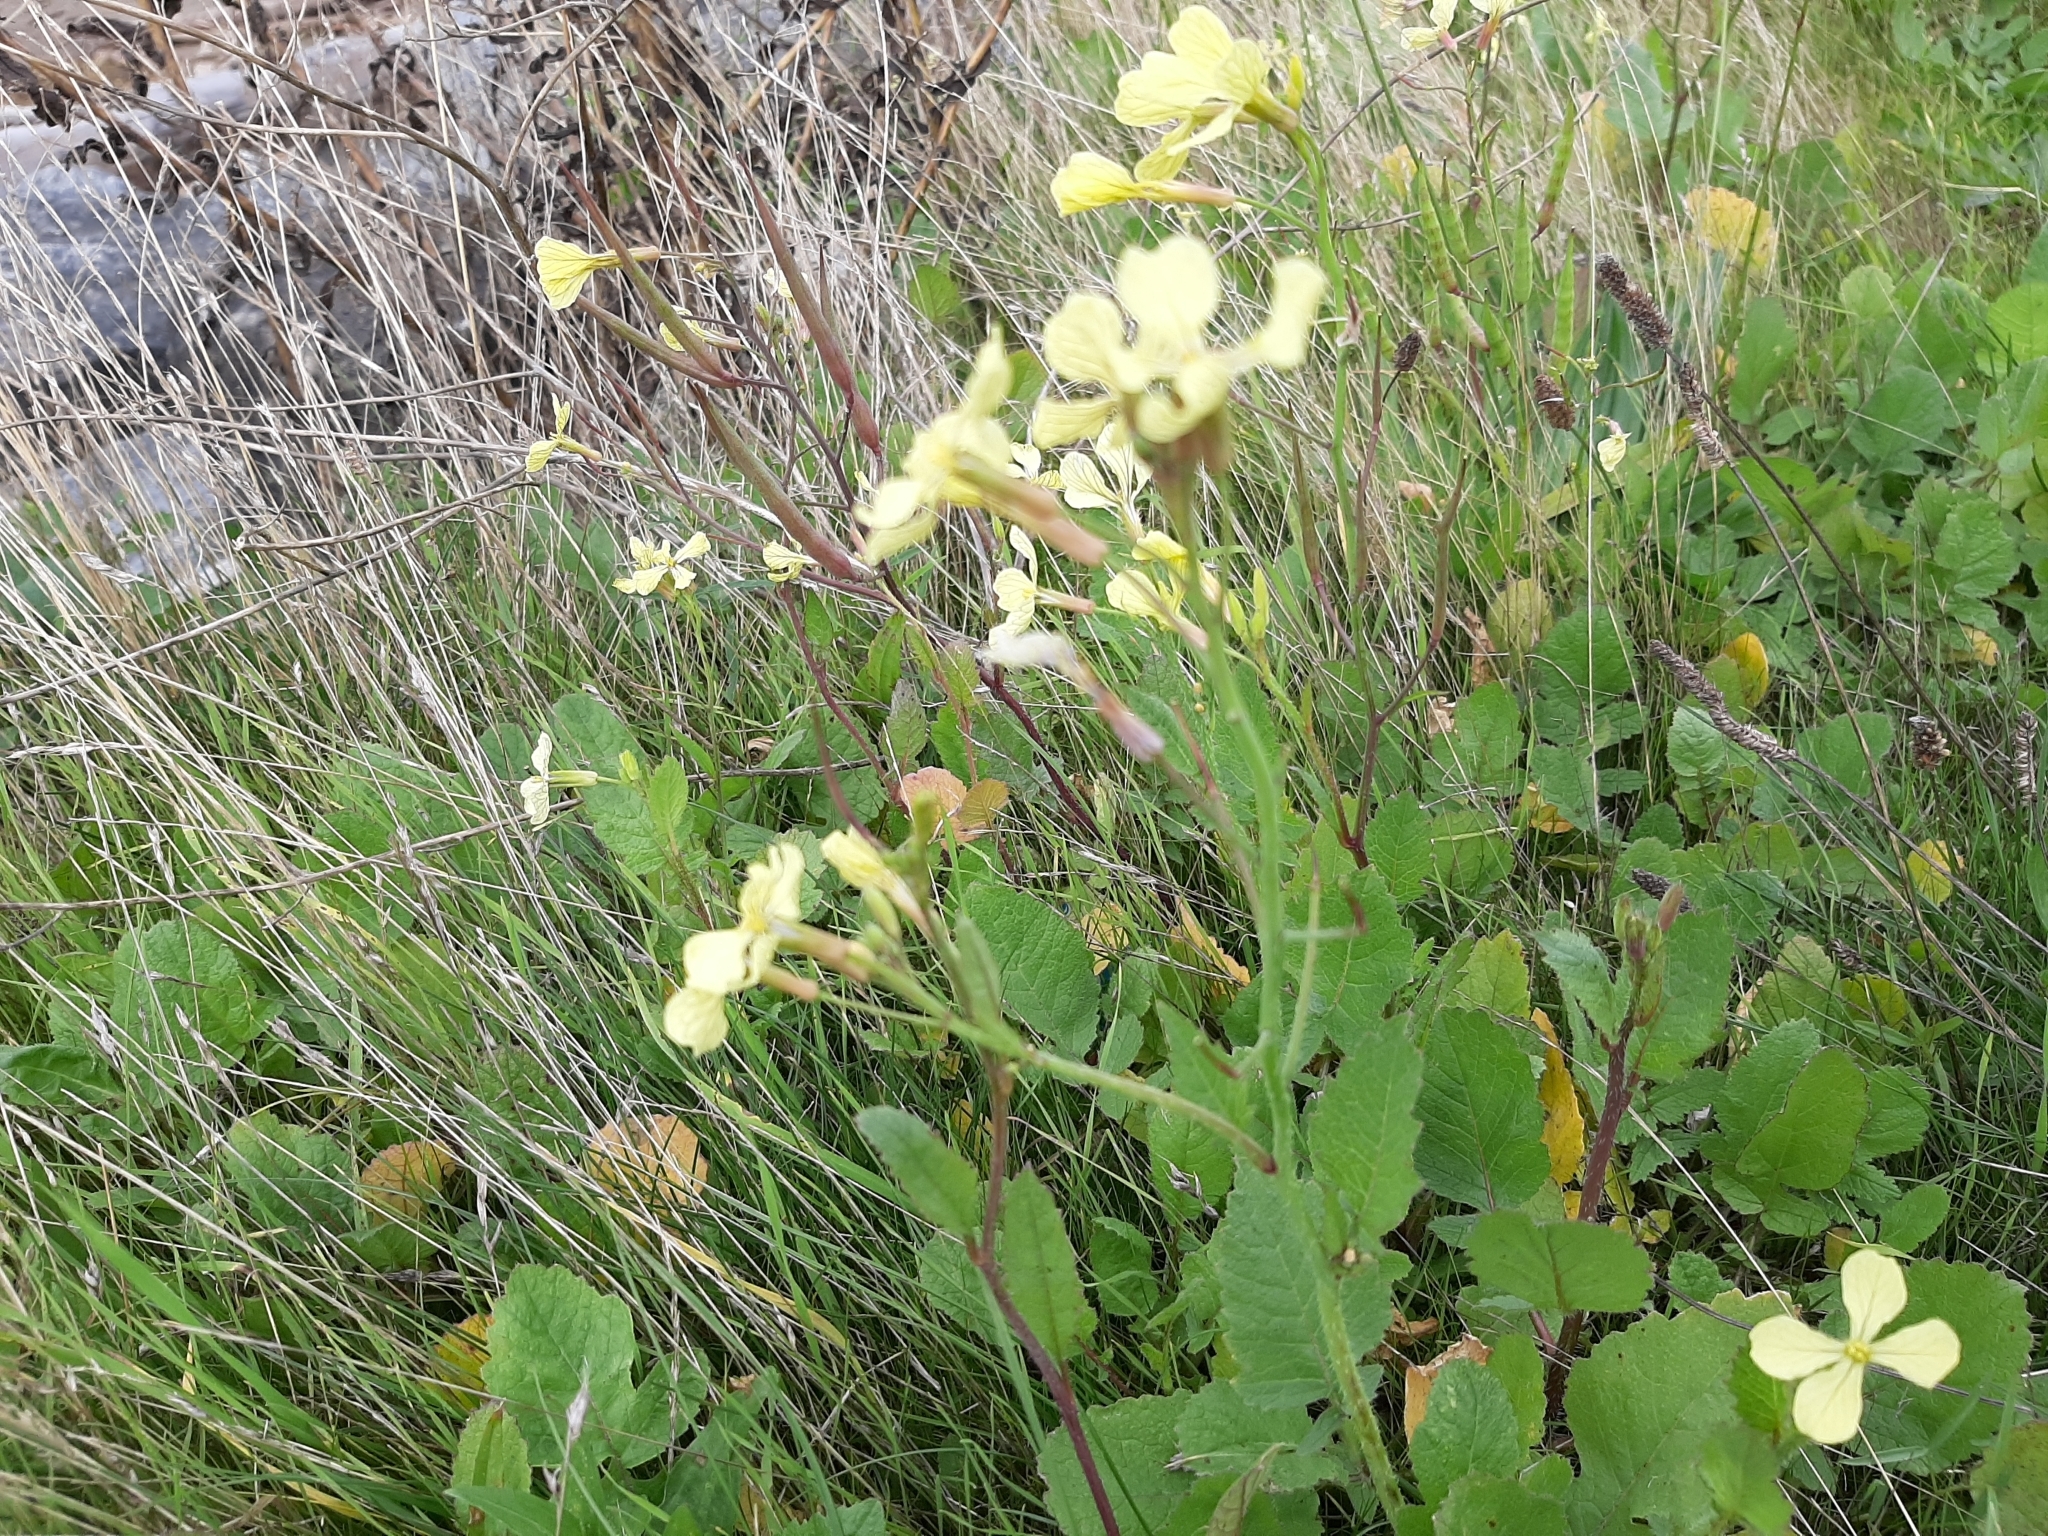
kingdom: Plantae
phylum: Tracheophyta
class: Magnoliopsida
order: Brassicales
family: Brassicaceae
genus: Raphanus
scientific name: Raphanus raphanistrum
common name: Wild radish
